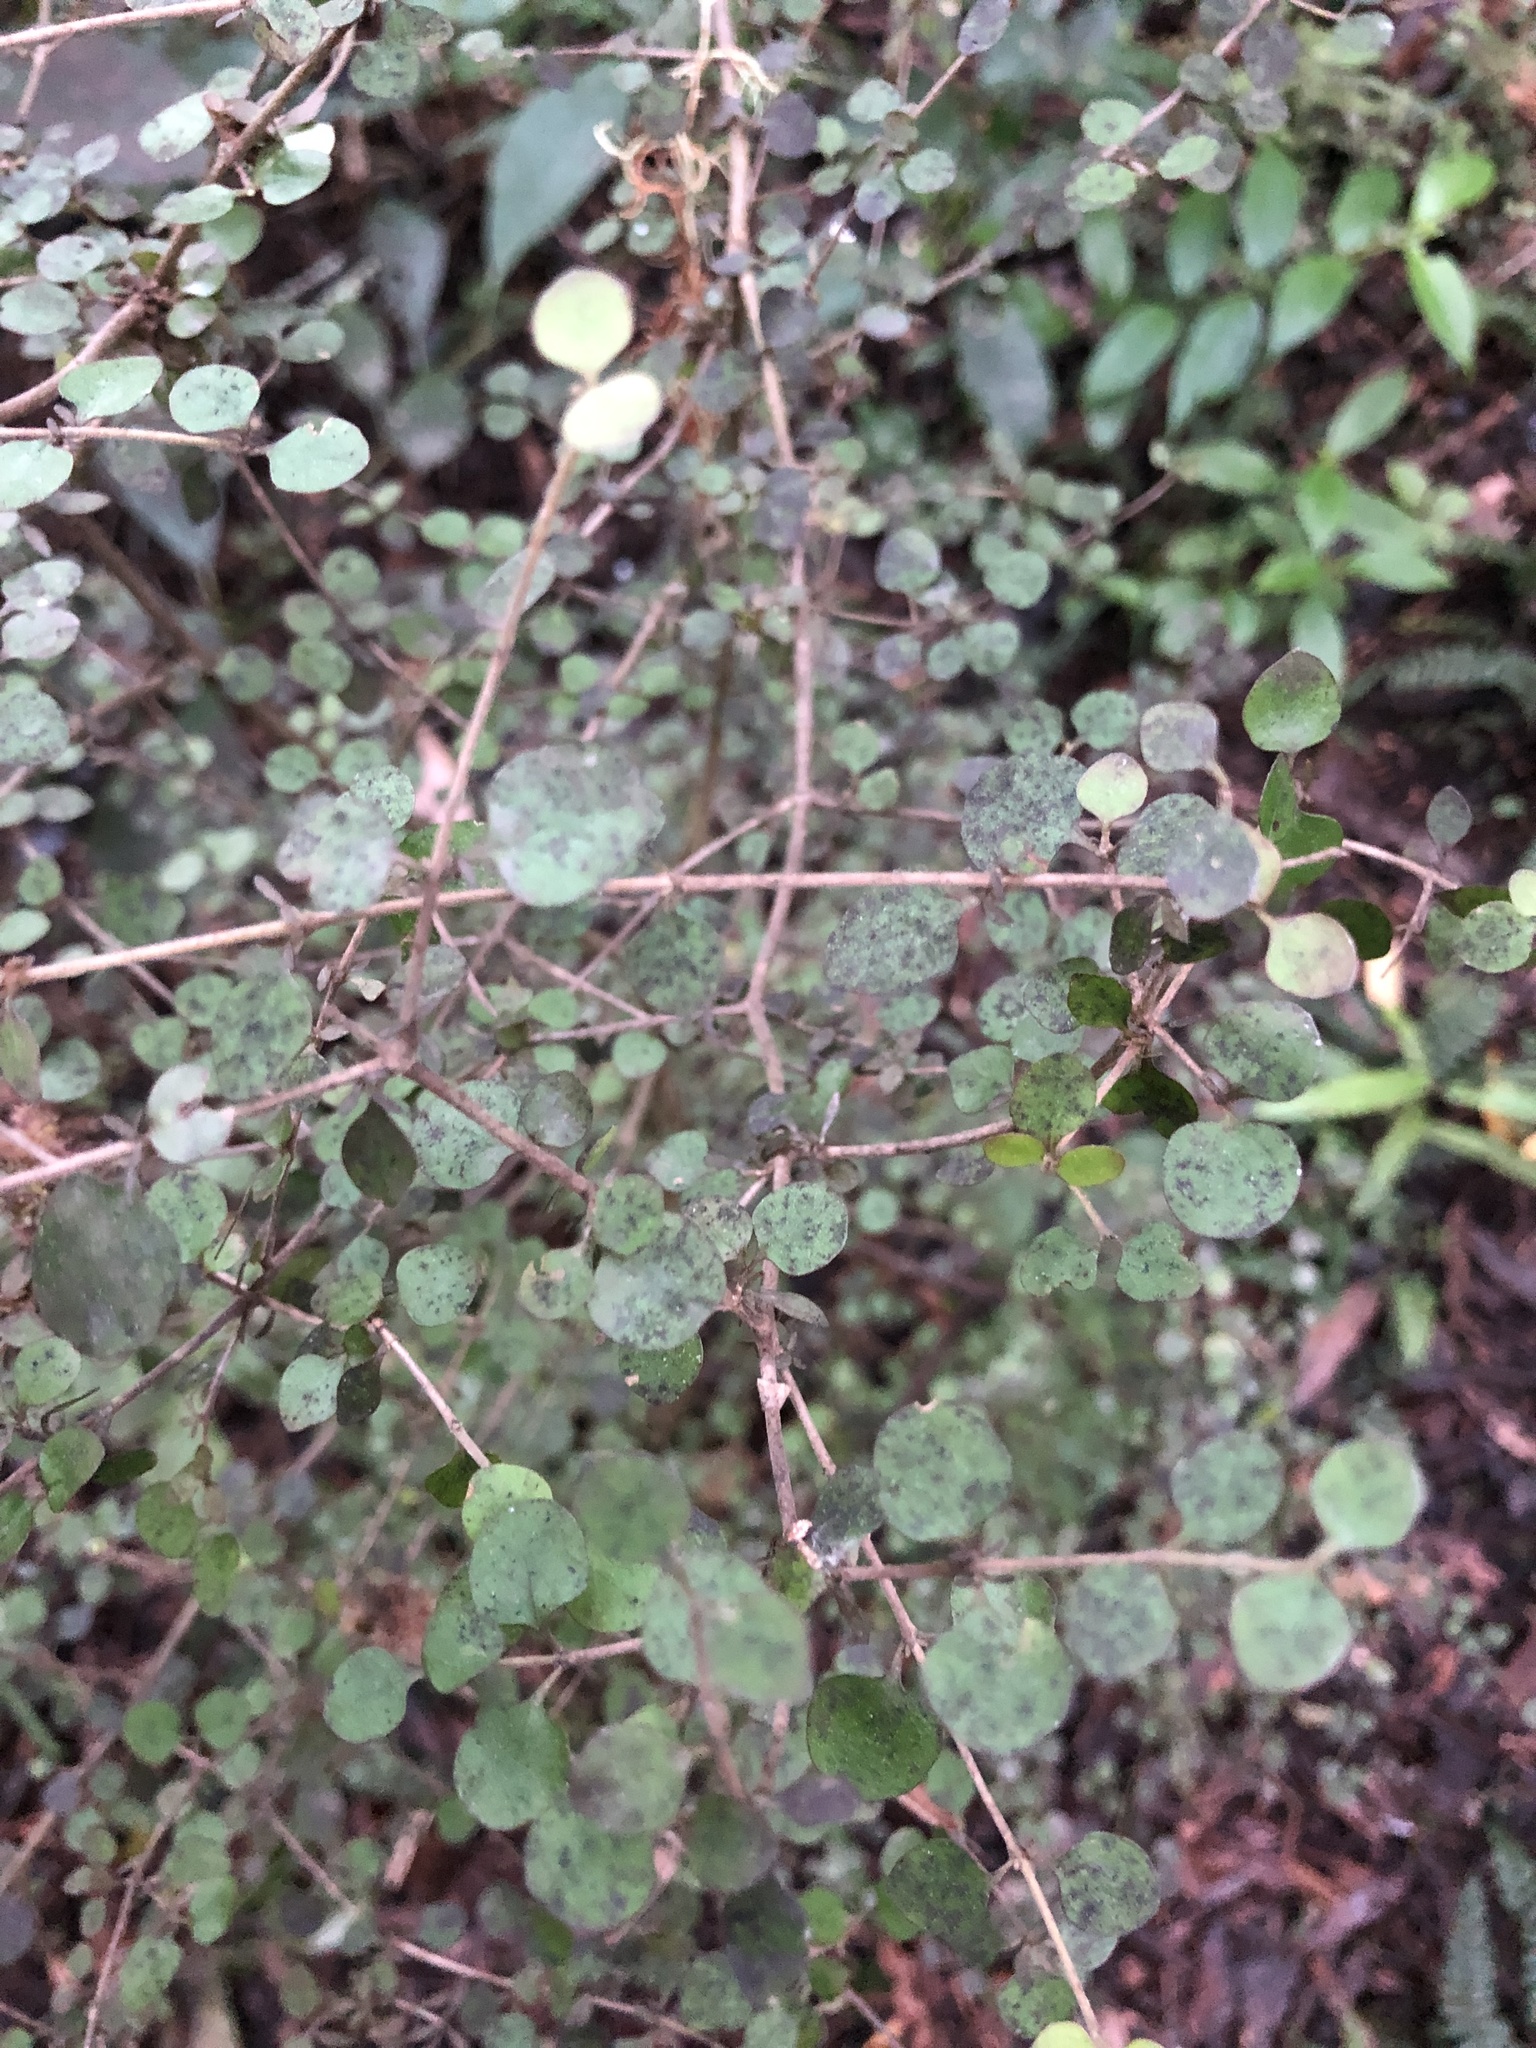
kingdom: Plantae
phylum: Tracheophyta
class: Magnoliopsida
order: Gentianales
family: Rubiaceae
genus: Coprosma
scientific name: Coprosma rhamnoides
